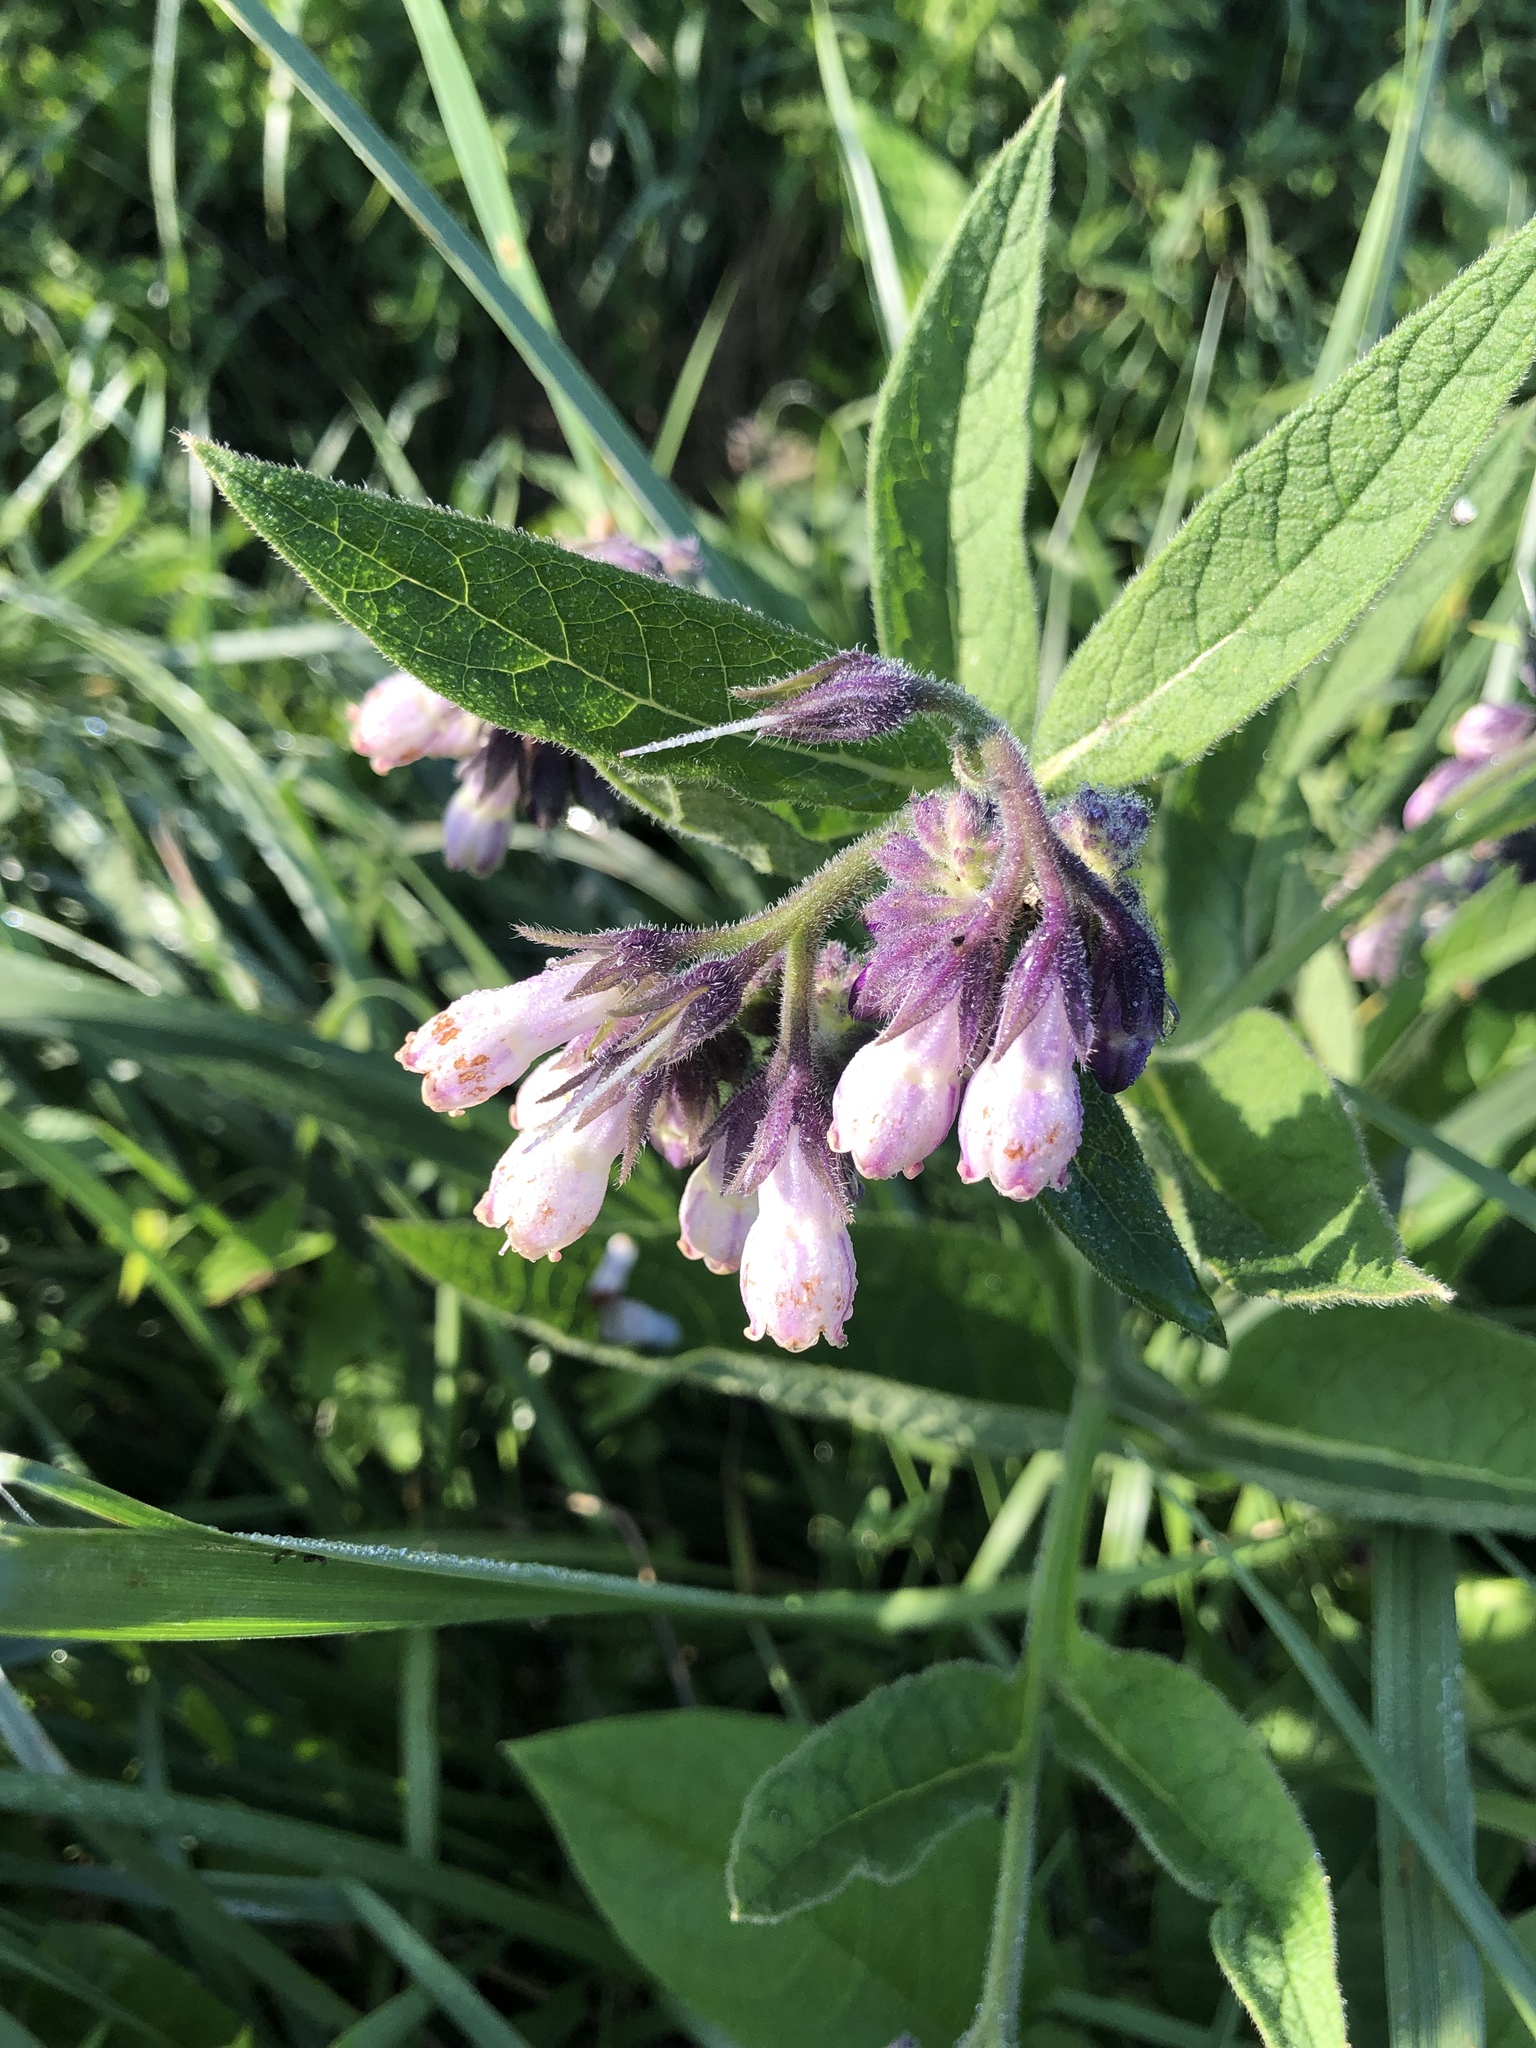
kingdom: Plantae
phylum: Tracheophyta
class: Magnoliopsida
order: Boraginales
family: Boraginaceae
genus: Symphytum
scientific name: Symphytum officinale
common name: Common comfrey
